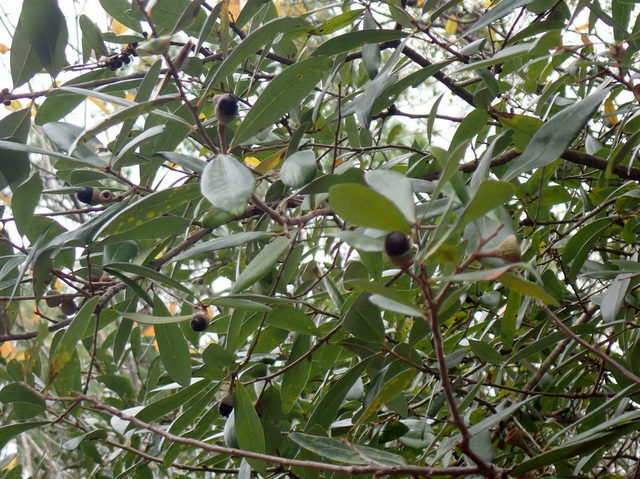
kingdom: Plantae
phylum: Tracheophyta
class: Magnoliopsida
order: Fagales
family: Fagaceae
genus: Quercus
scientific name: Quercus virginiana
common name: Southern live oak
